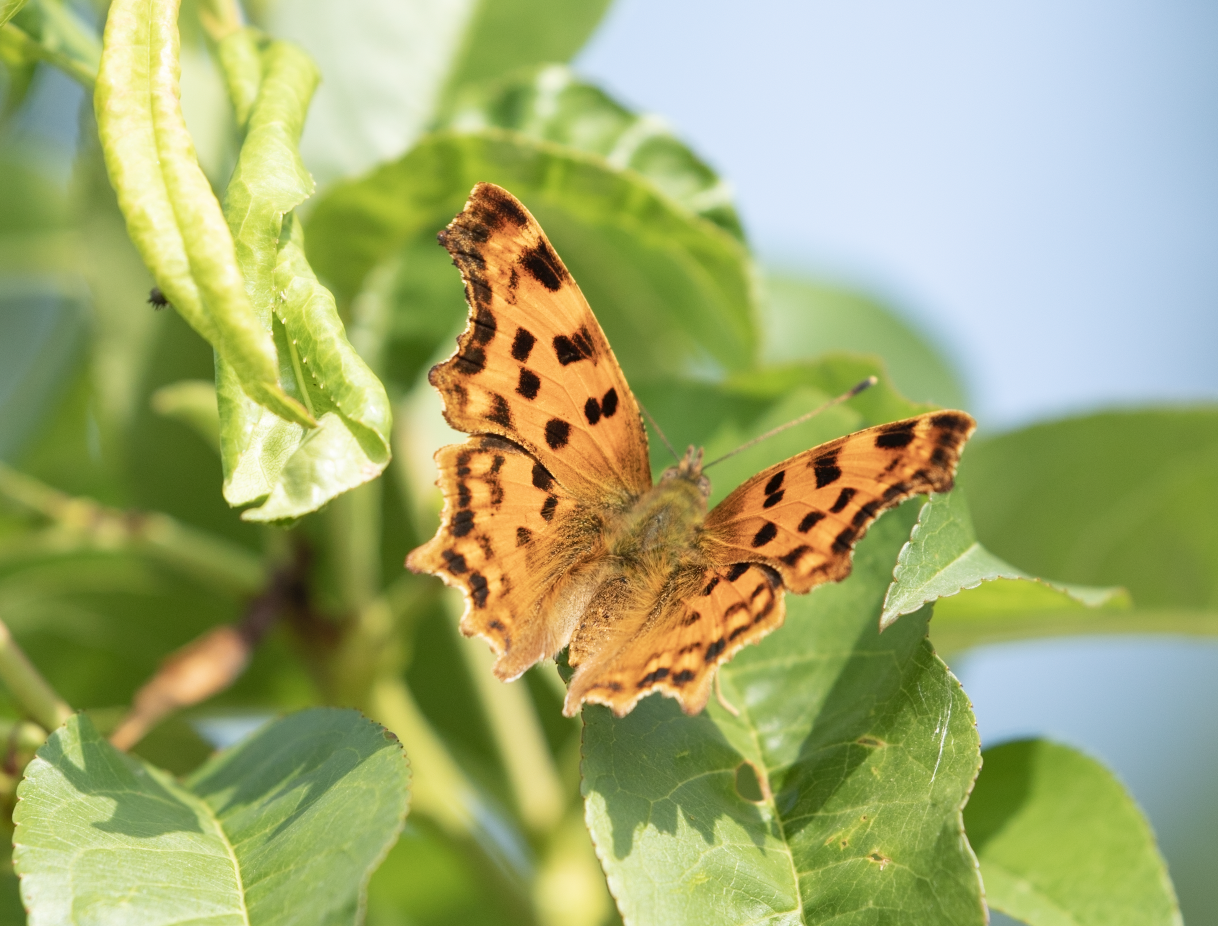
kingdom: Animalia
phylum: Arthropoda
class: Insecta
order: Lepidoptera
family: Nymphalidae
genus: Polygonia
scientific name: Polygonia c-album
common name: Comma
